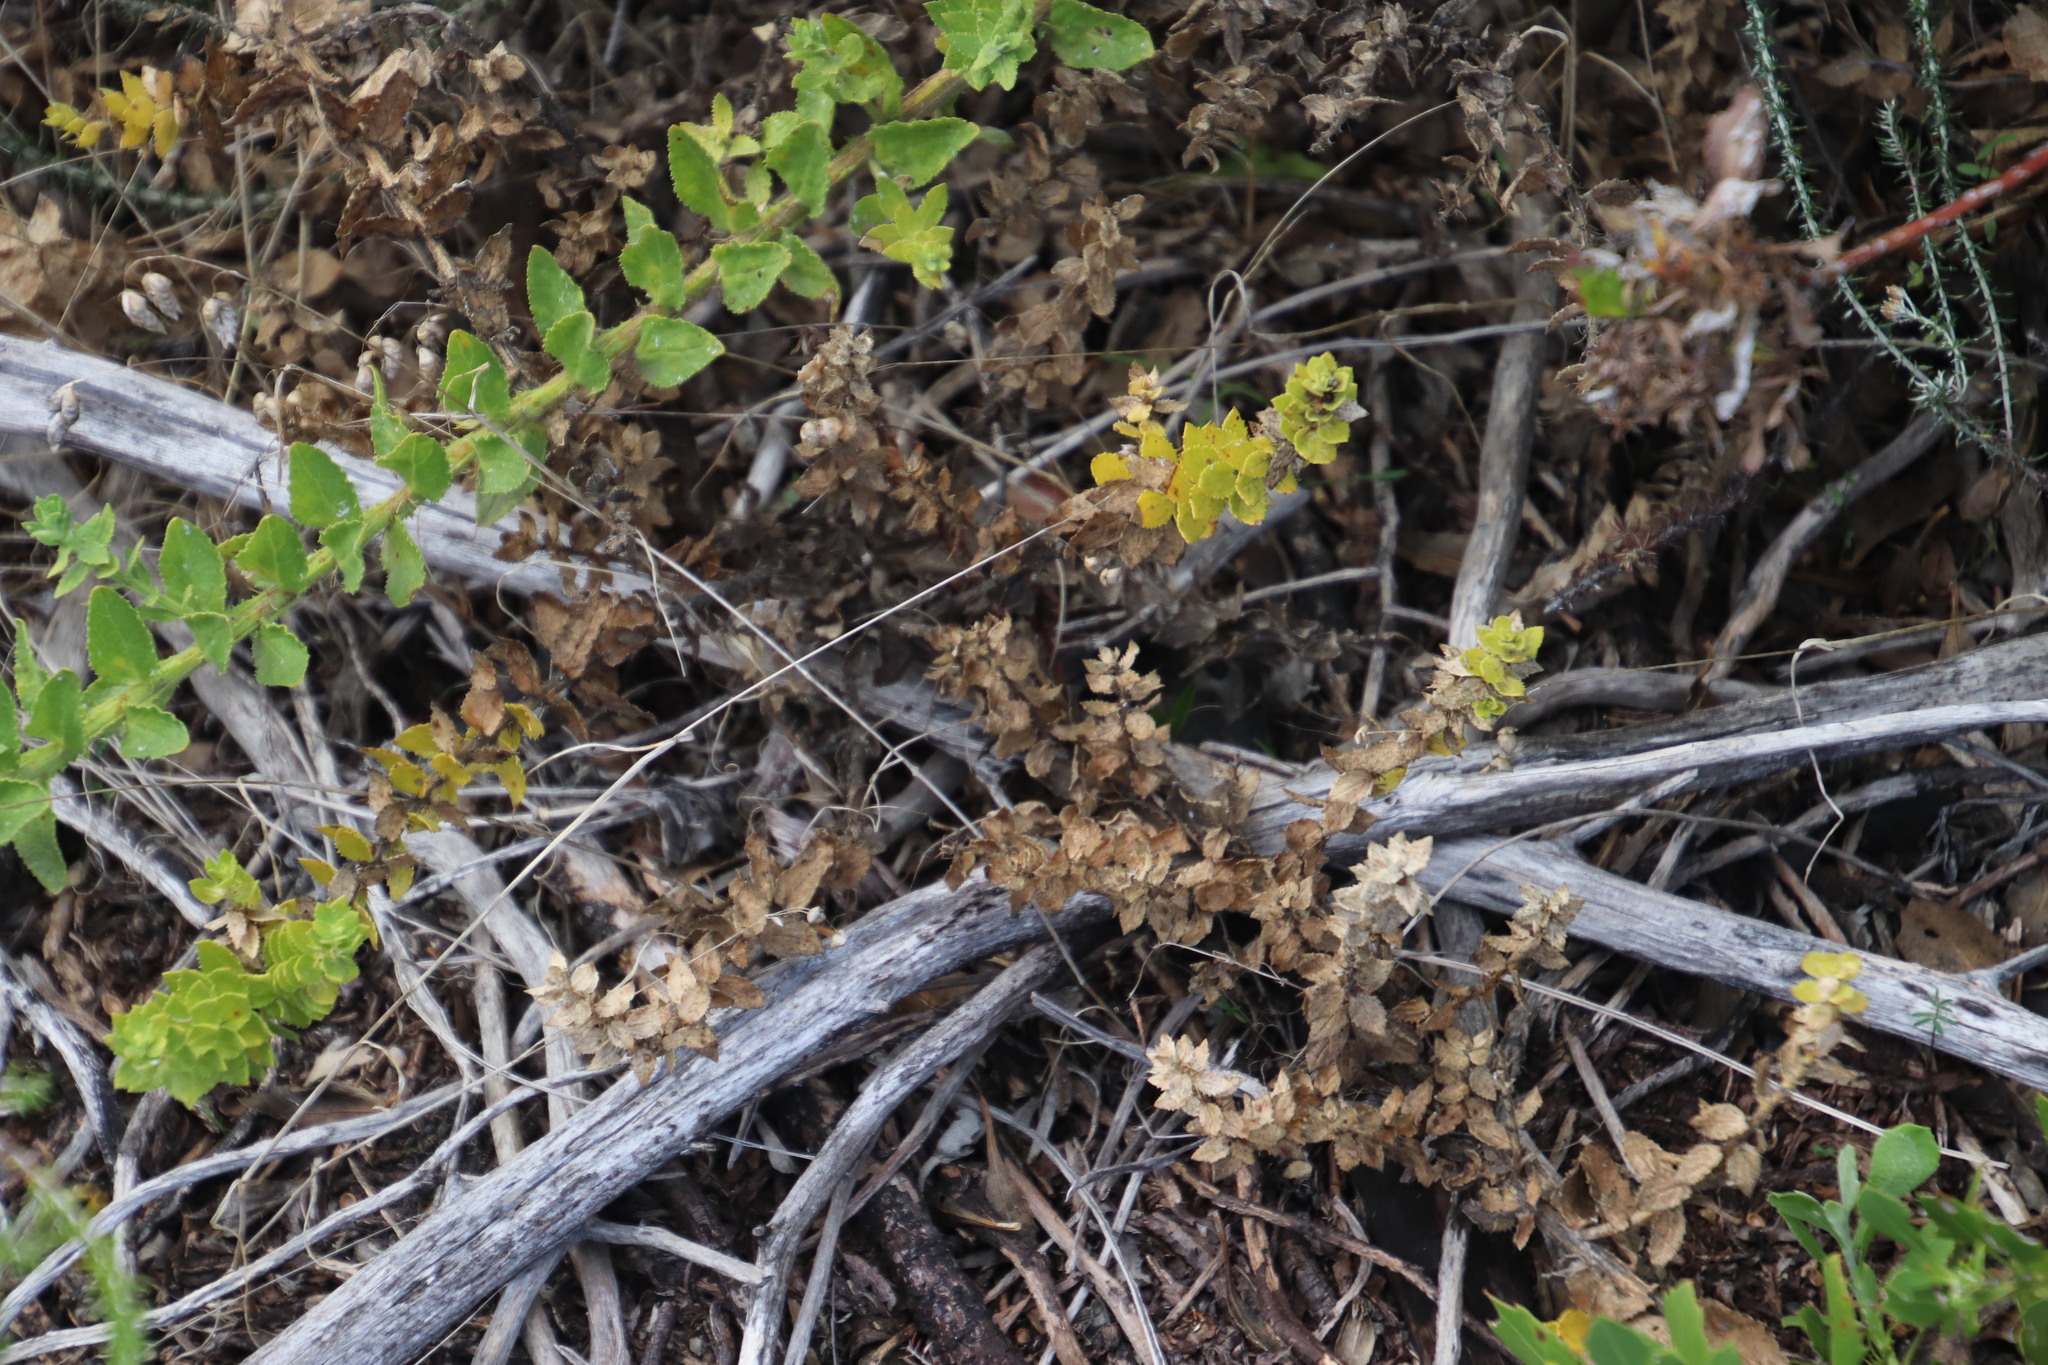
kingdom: Plantae
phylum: Tracheophyta
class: Magnoliopsida
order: Lamiales
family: Scrophulariaceae
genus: Oftia
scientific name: Oftia africana
